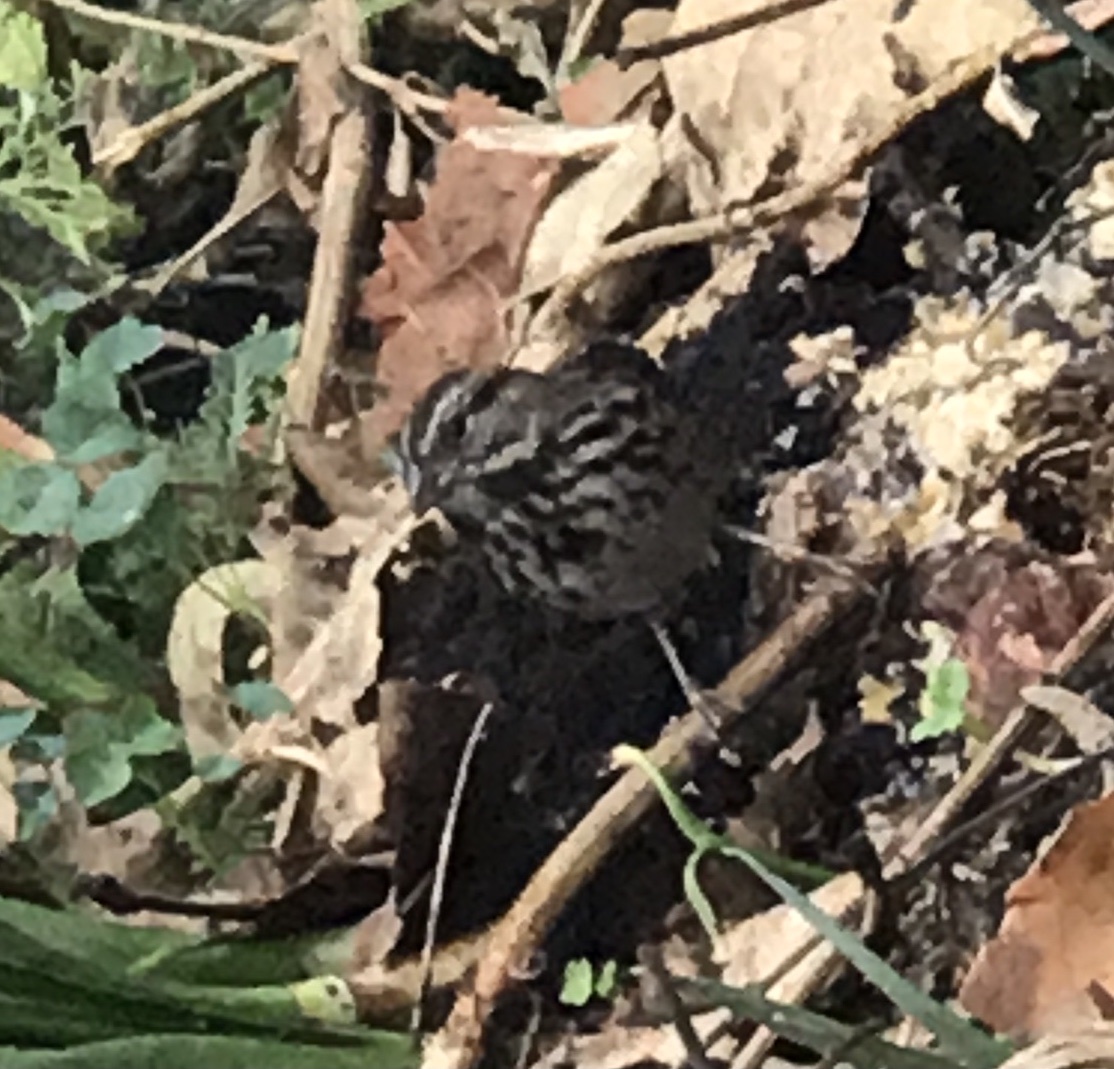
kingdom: Animalia
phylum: Chordata
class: Aves
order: Passeriformes
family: Passerellidae
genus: Melospiza
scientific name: Melospiza melodia
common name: Song sparrow
